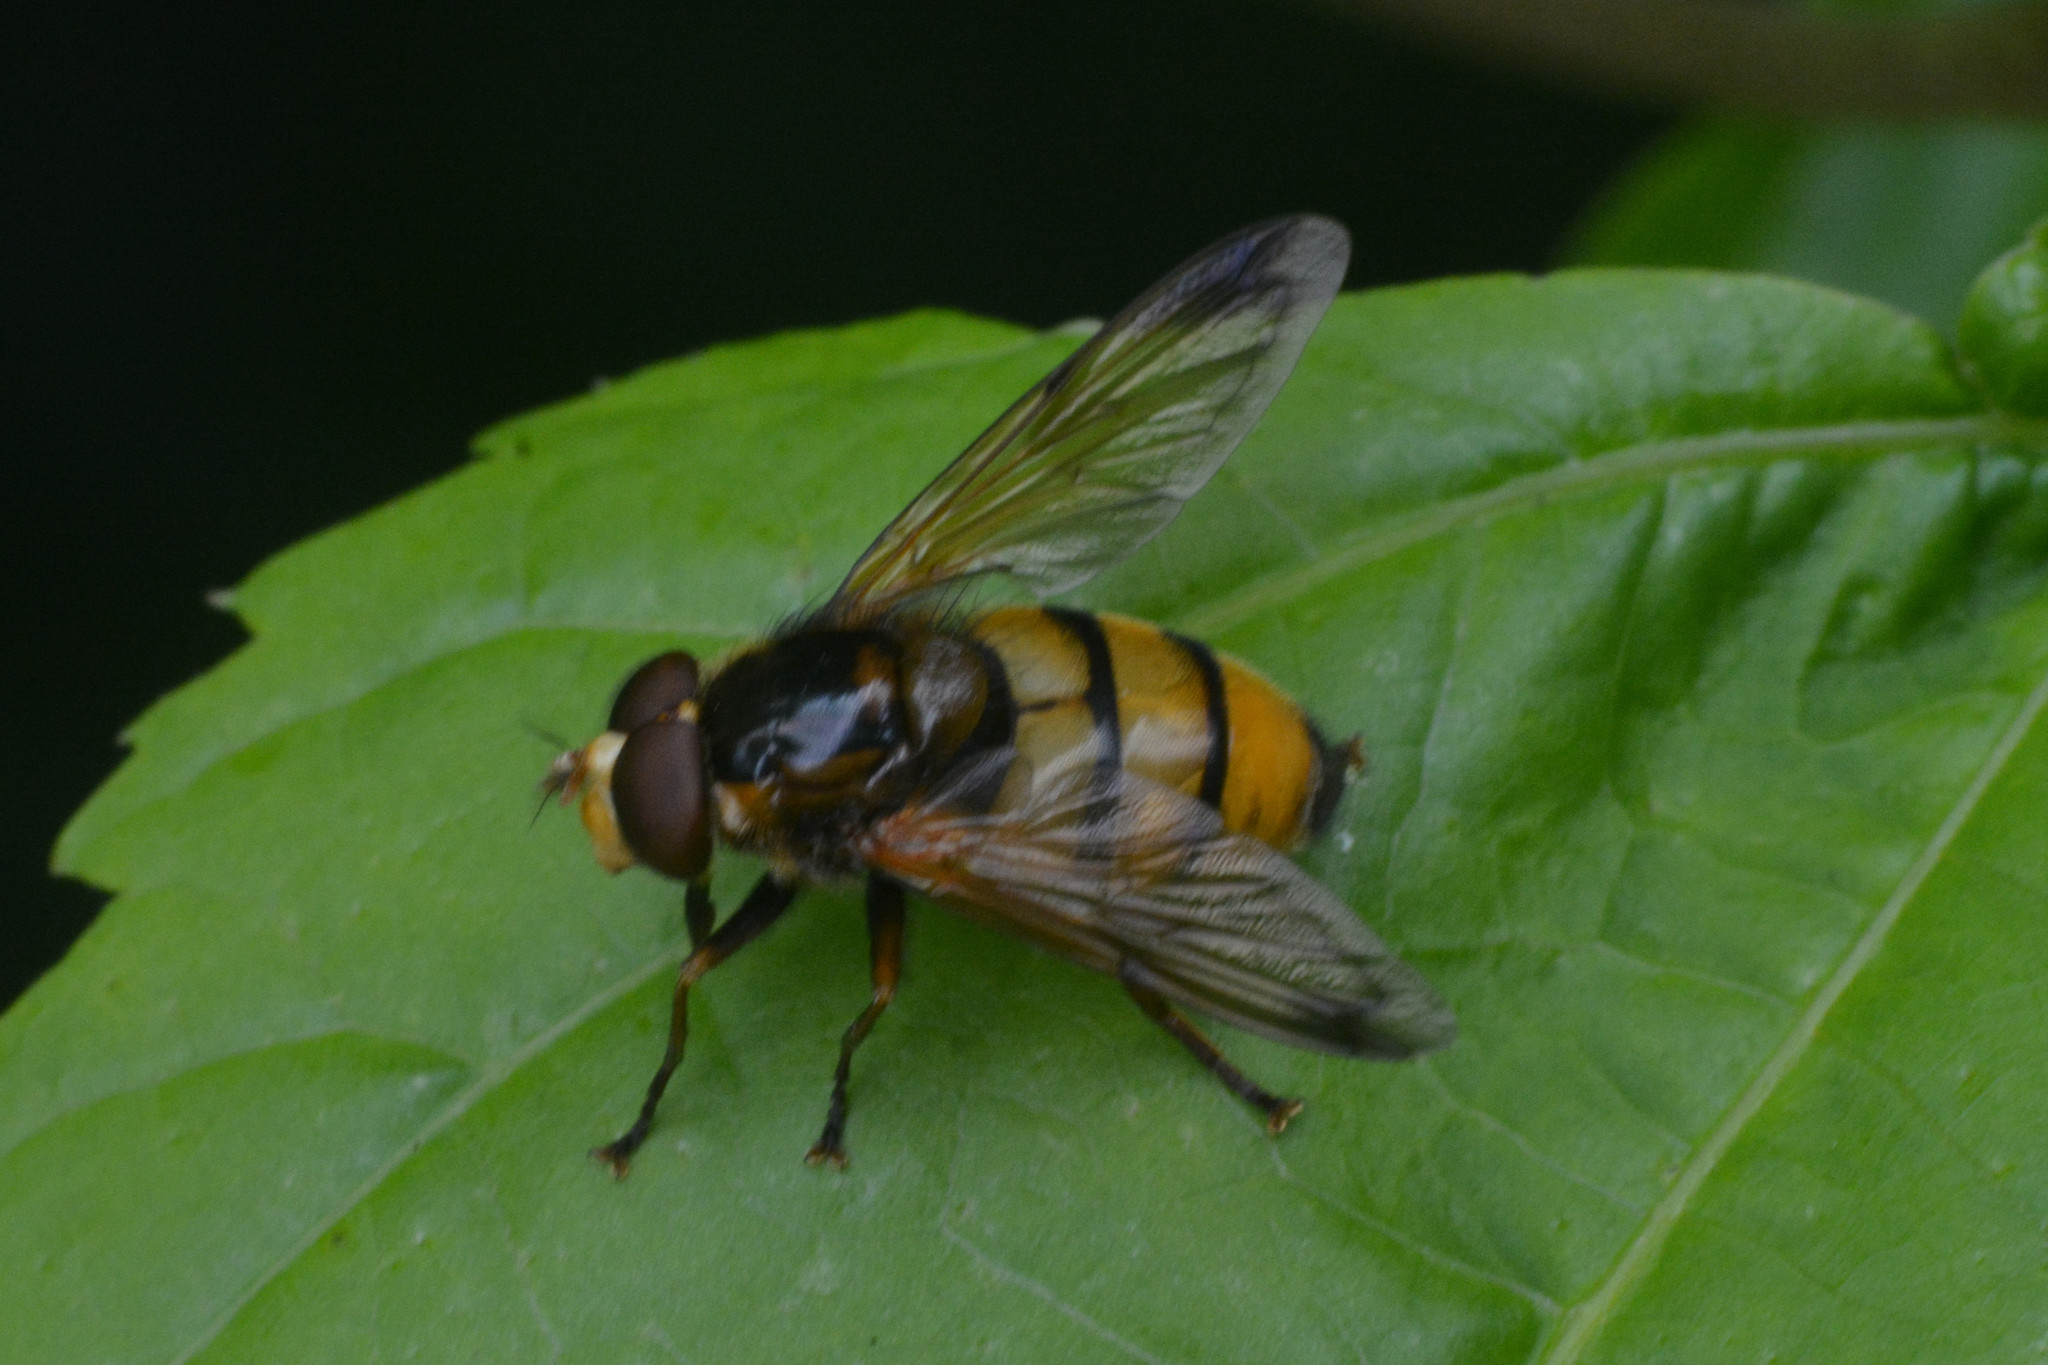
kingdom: Animalia
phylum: Arthropoda
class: Insecta
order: Diptera
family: Syrphidae
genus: Volucella
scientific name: Volucella inanis
